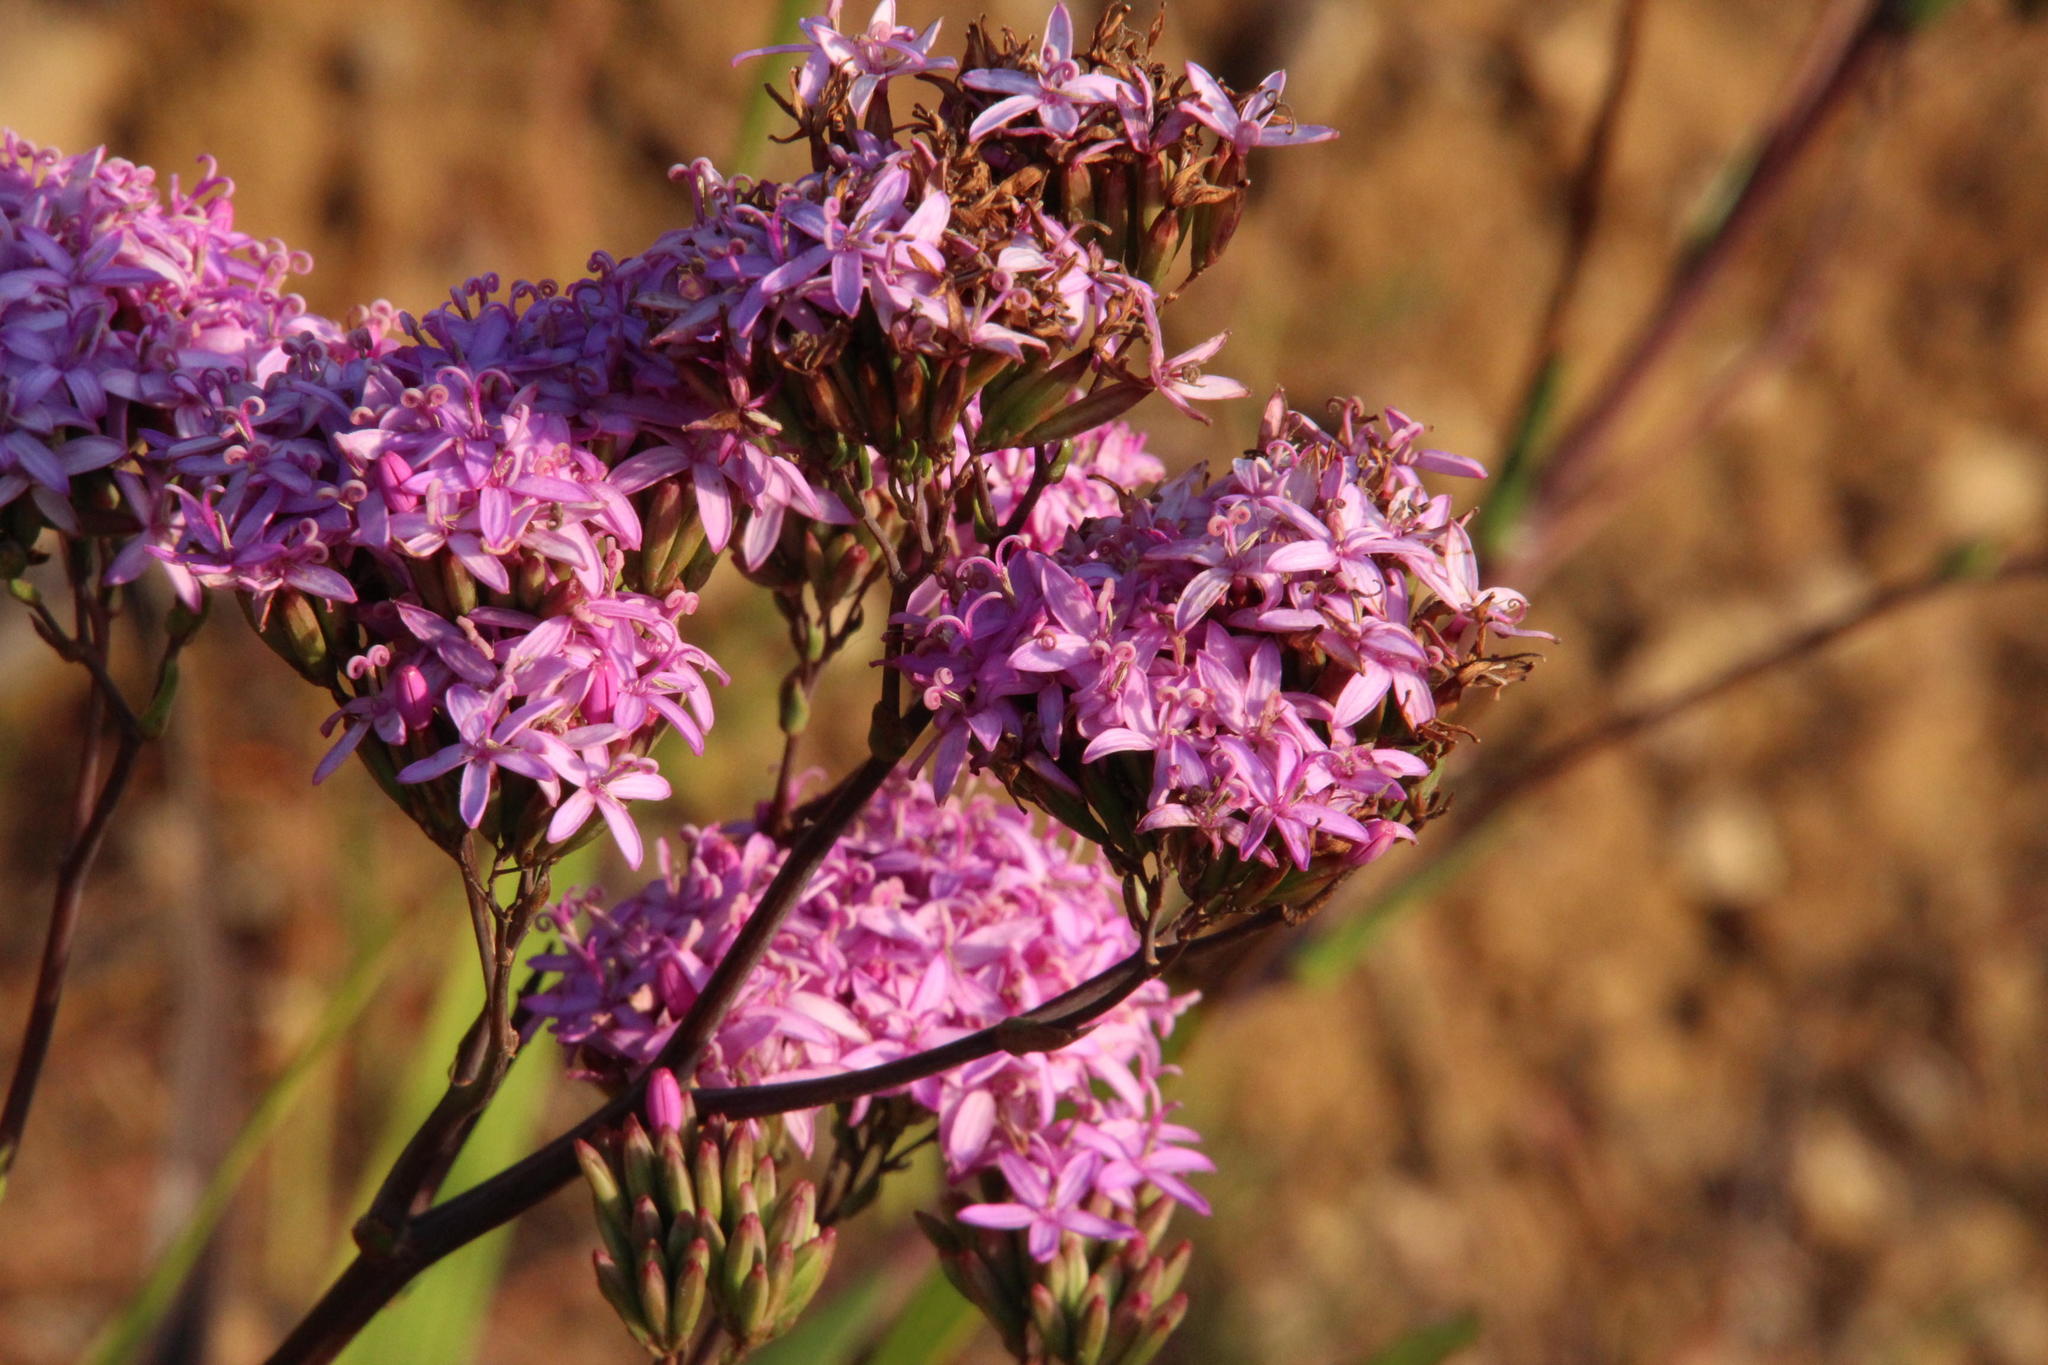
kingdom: Plantae
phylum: Tracheophyta
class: Magnoliopsida
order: Asterales
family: Asteraceae
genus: Corymbium
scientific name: Corymbium glabrum
